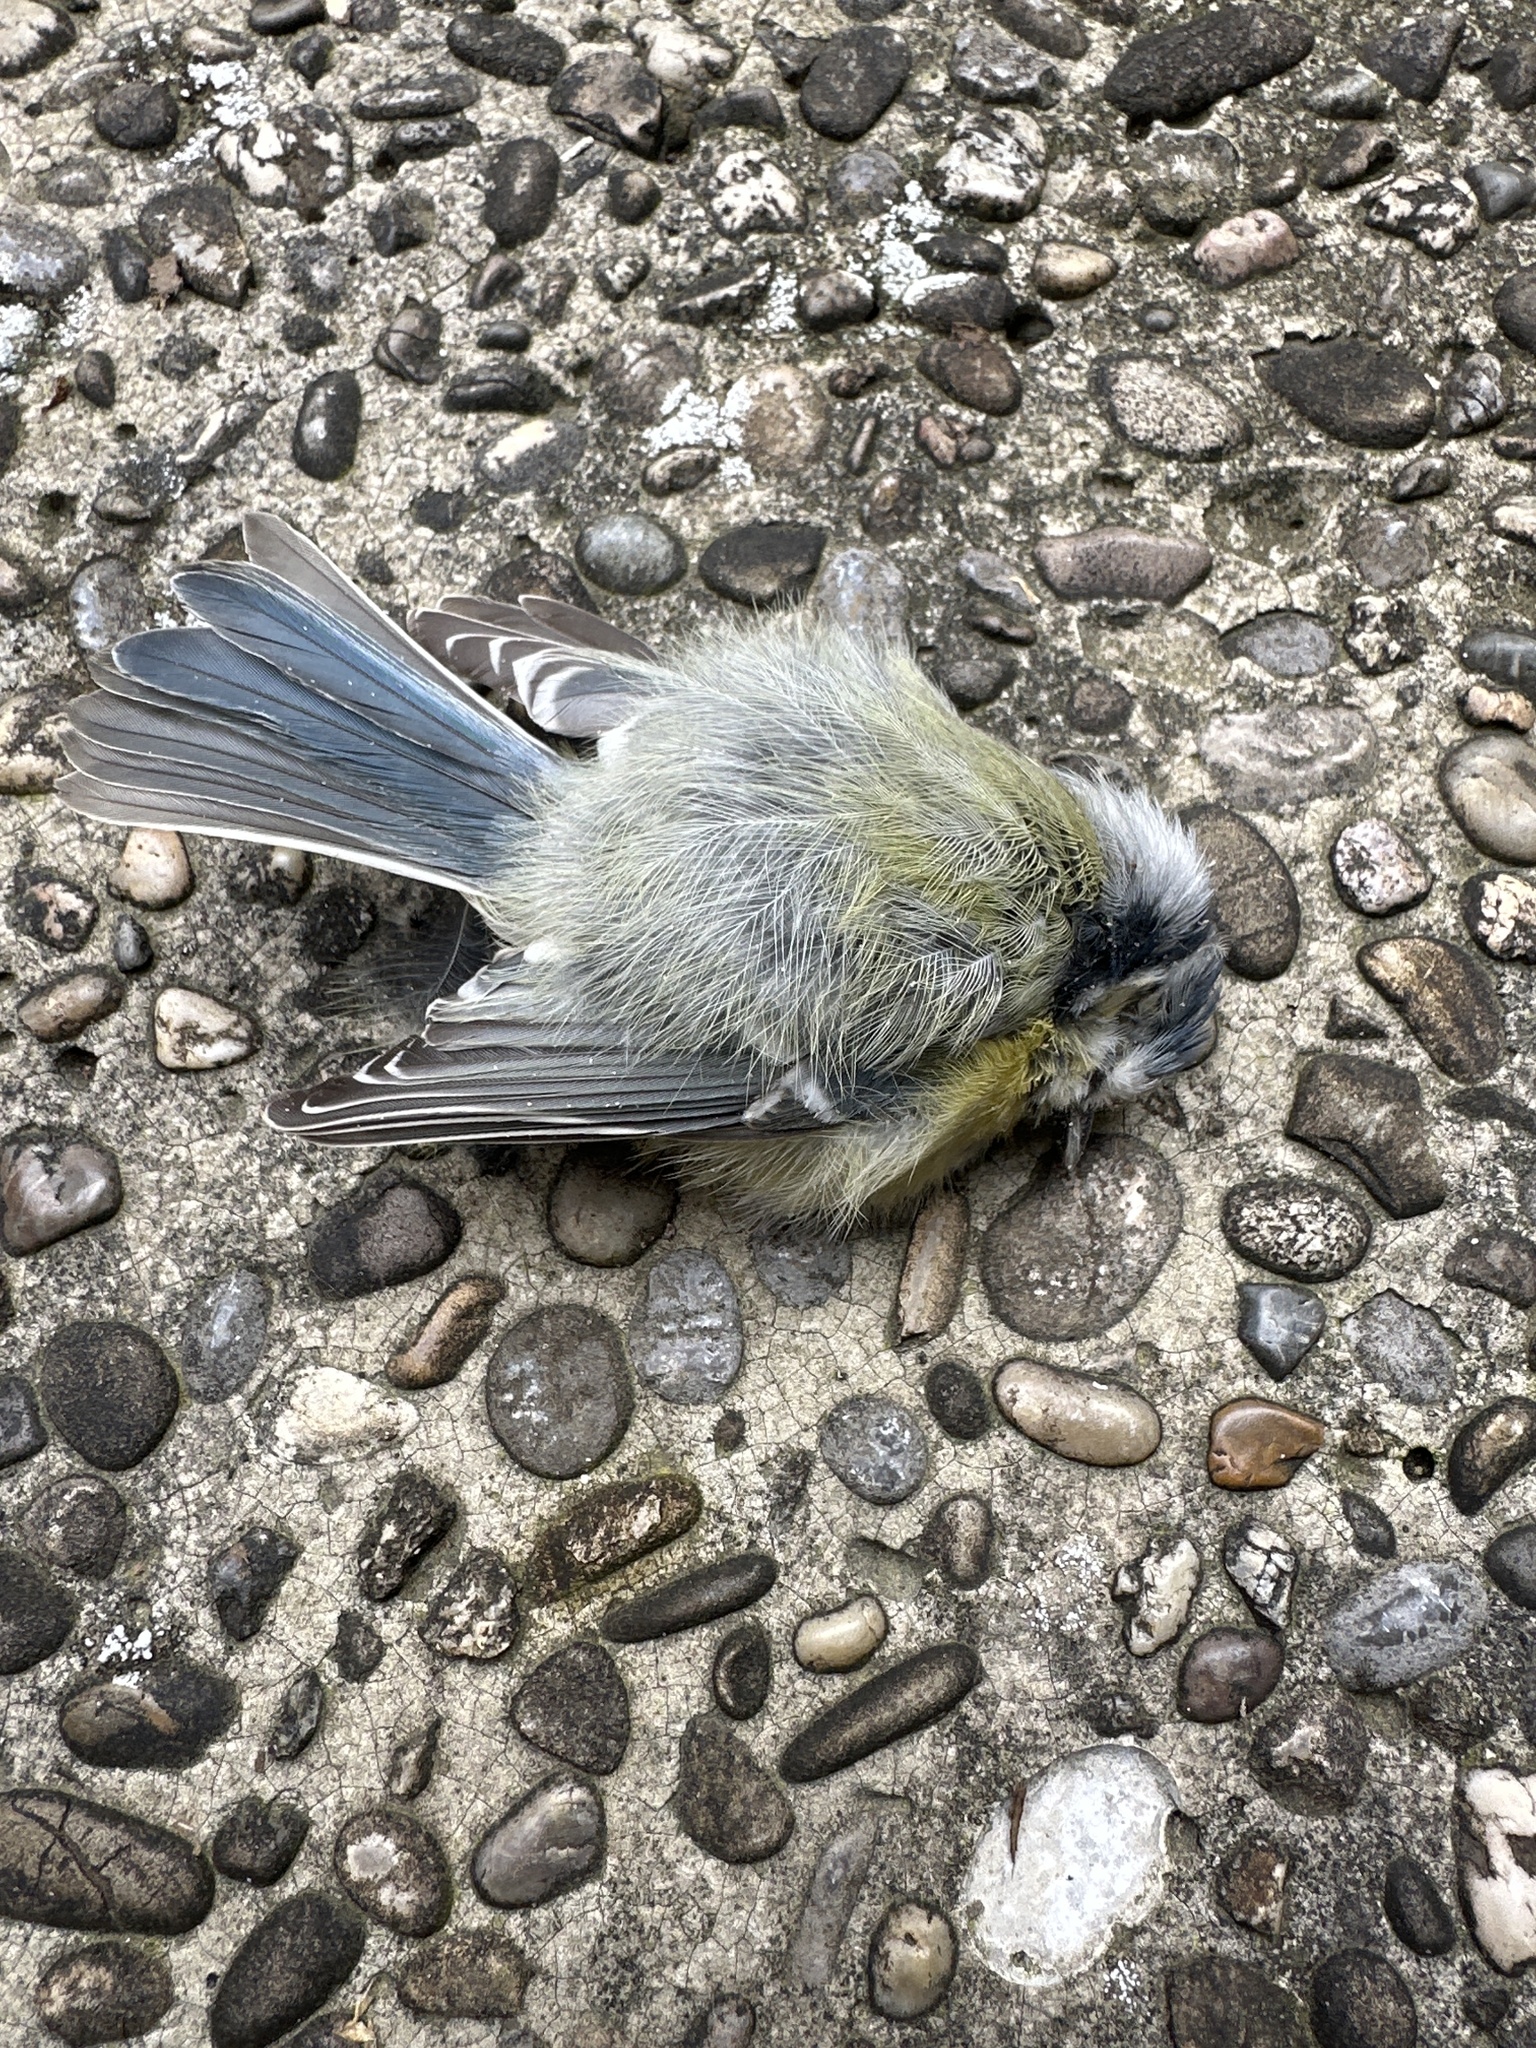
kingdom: Animalia
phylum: Chordata
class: Aves
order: Passeriformes
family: Paridae
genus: Cyanistes
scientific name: Cyanistes caeruleus
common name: Eurasian blue tit
